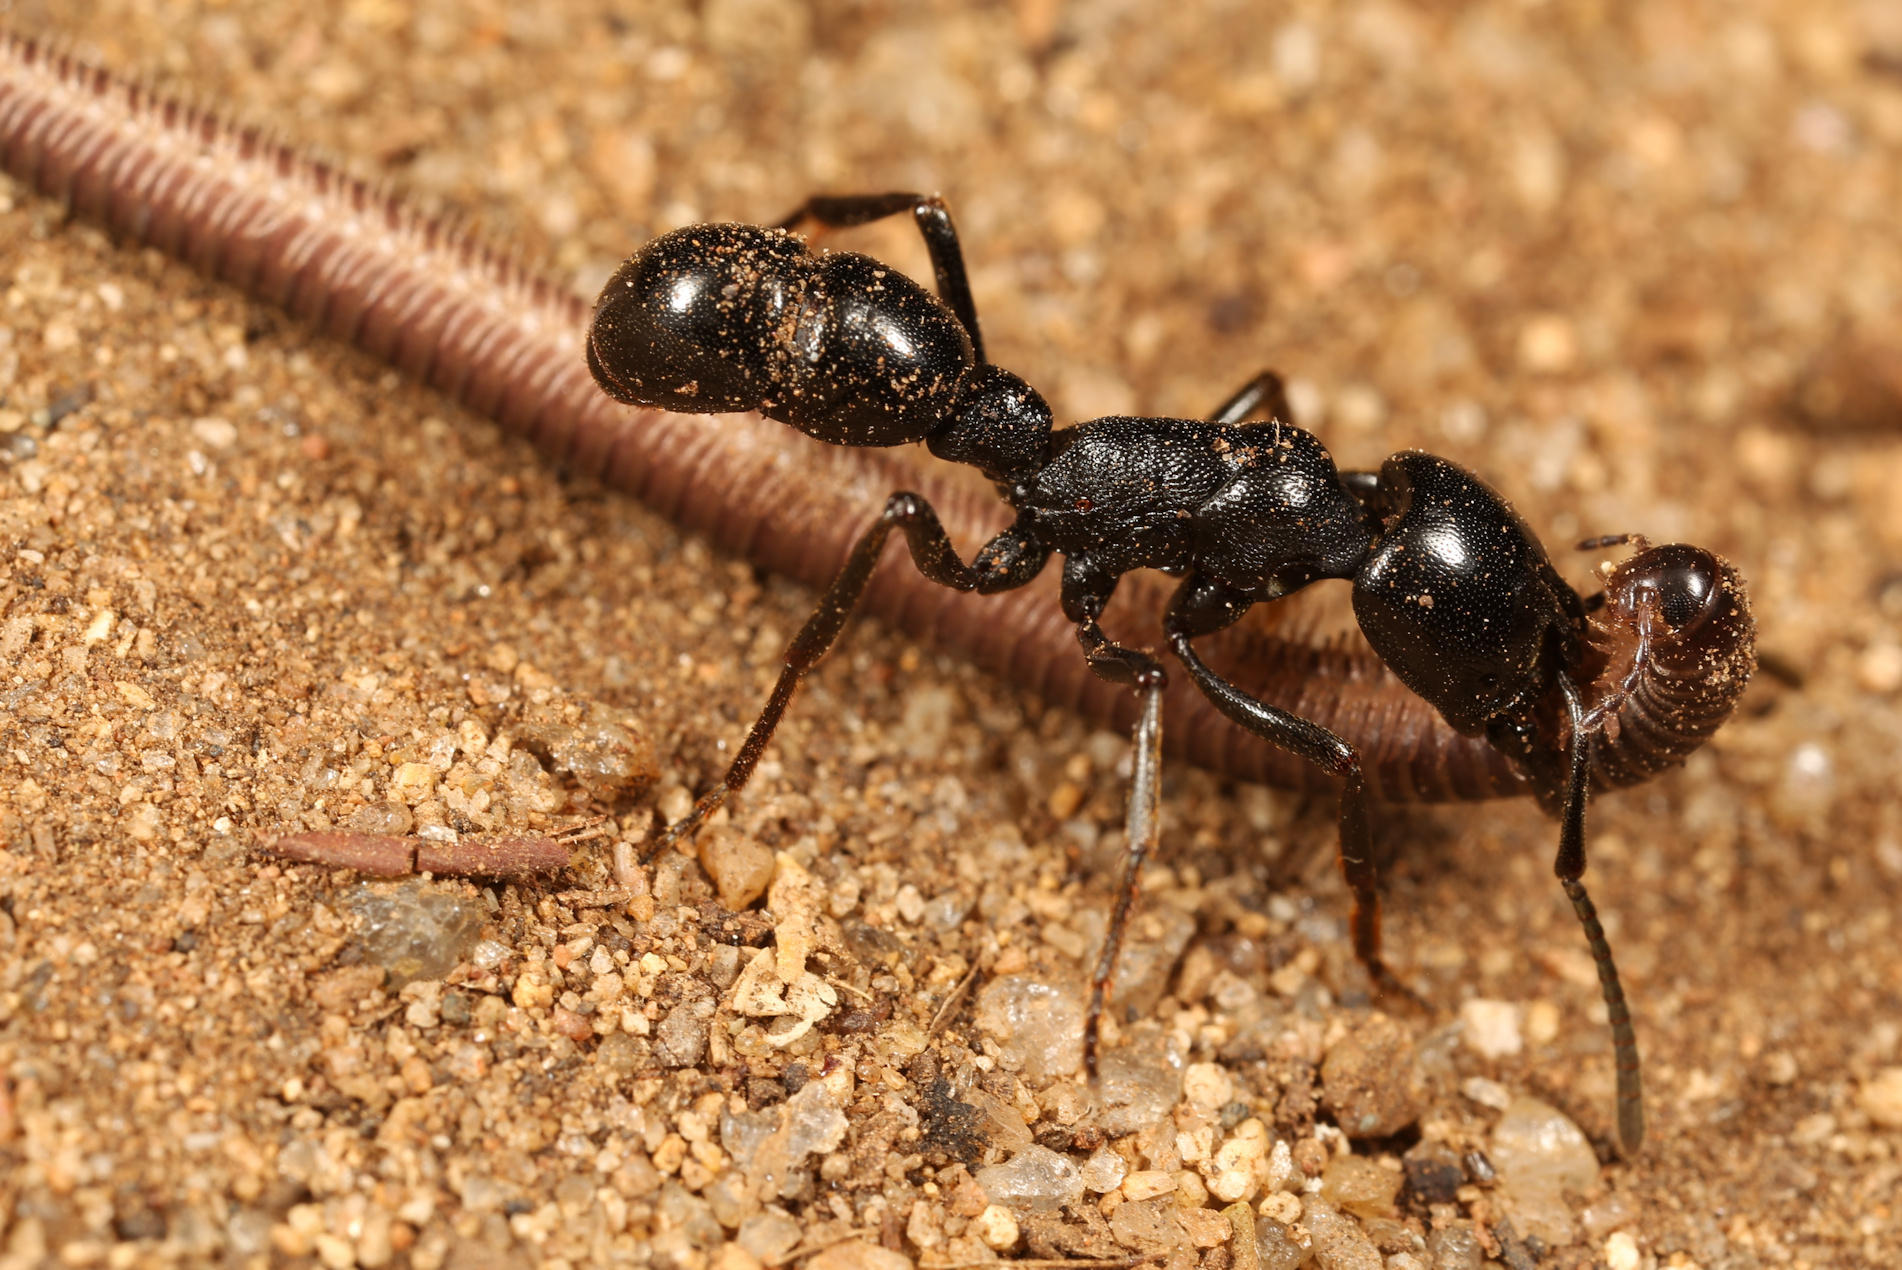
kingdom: Animalia
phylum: Arthropoda
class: Insecta
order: Hymenoptera
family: Formicidae
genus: Plectroctena
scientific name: Plectroctena mandibularis
